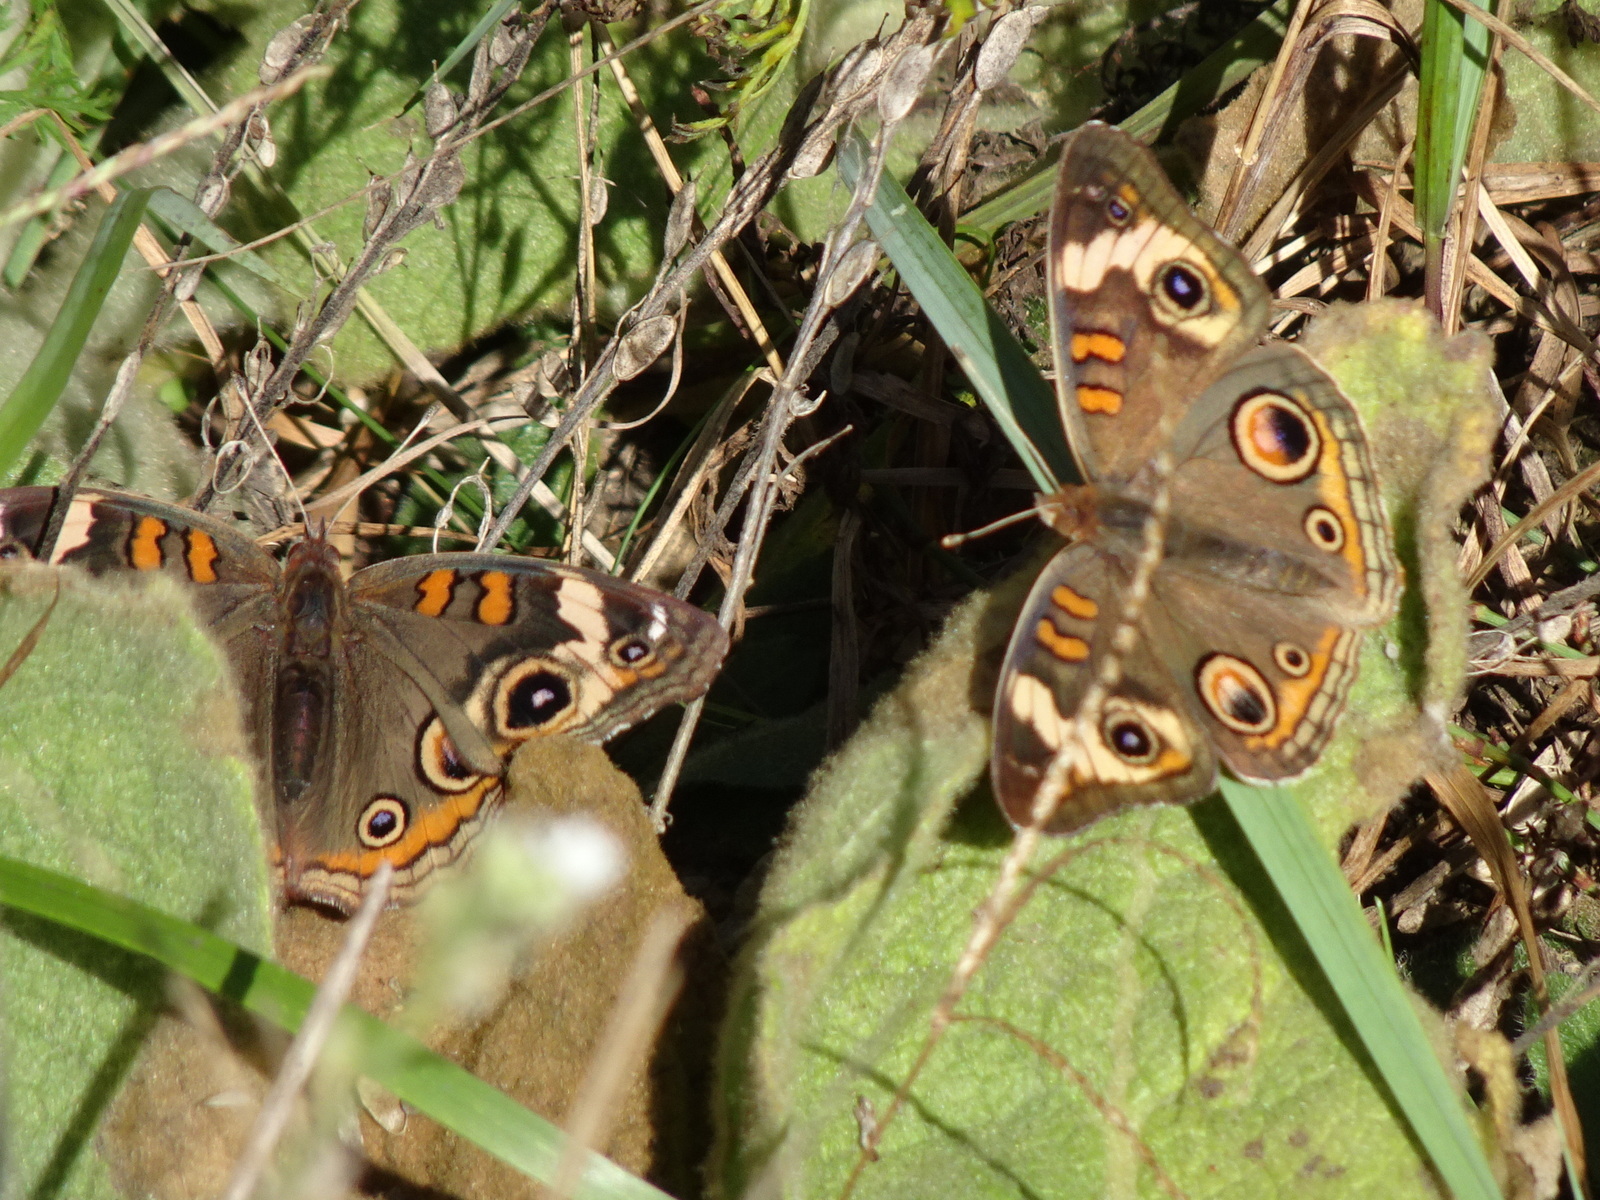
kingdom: Animalia
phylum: Arthropoda
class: Insecta
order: Lepidoptera
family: Nymphalidae
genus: Junonia
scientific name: Junonia coenia
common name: Common buckeye
